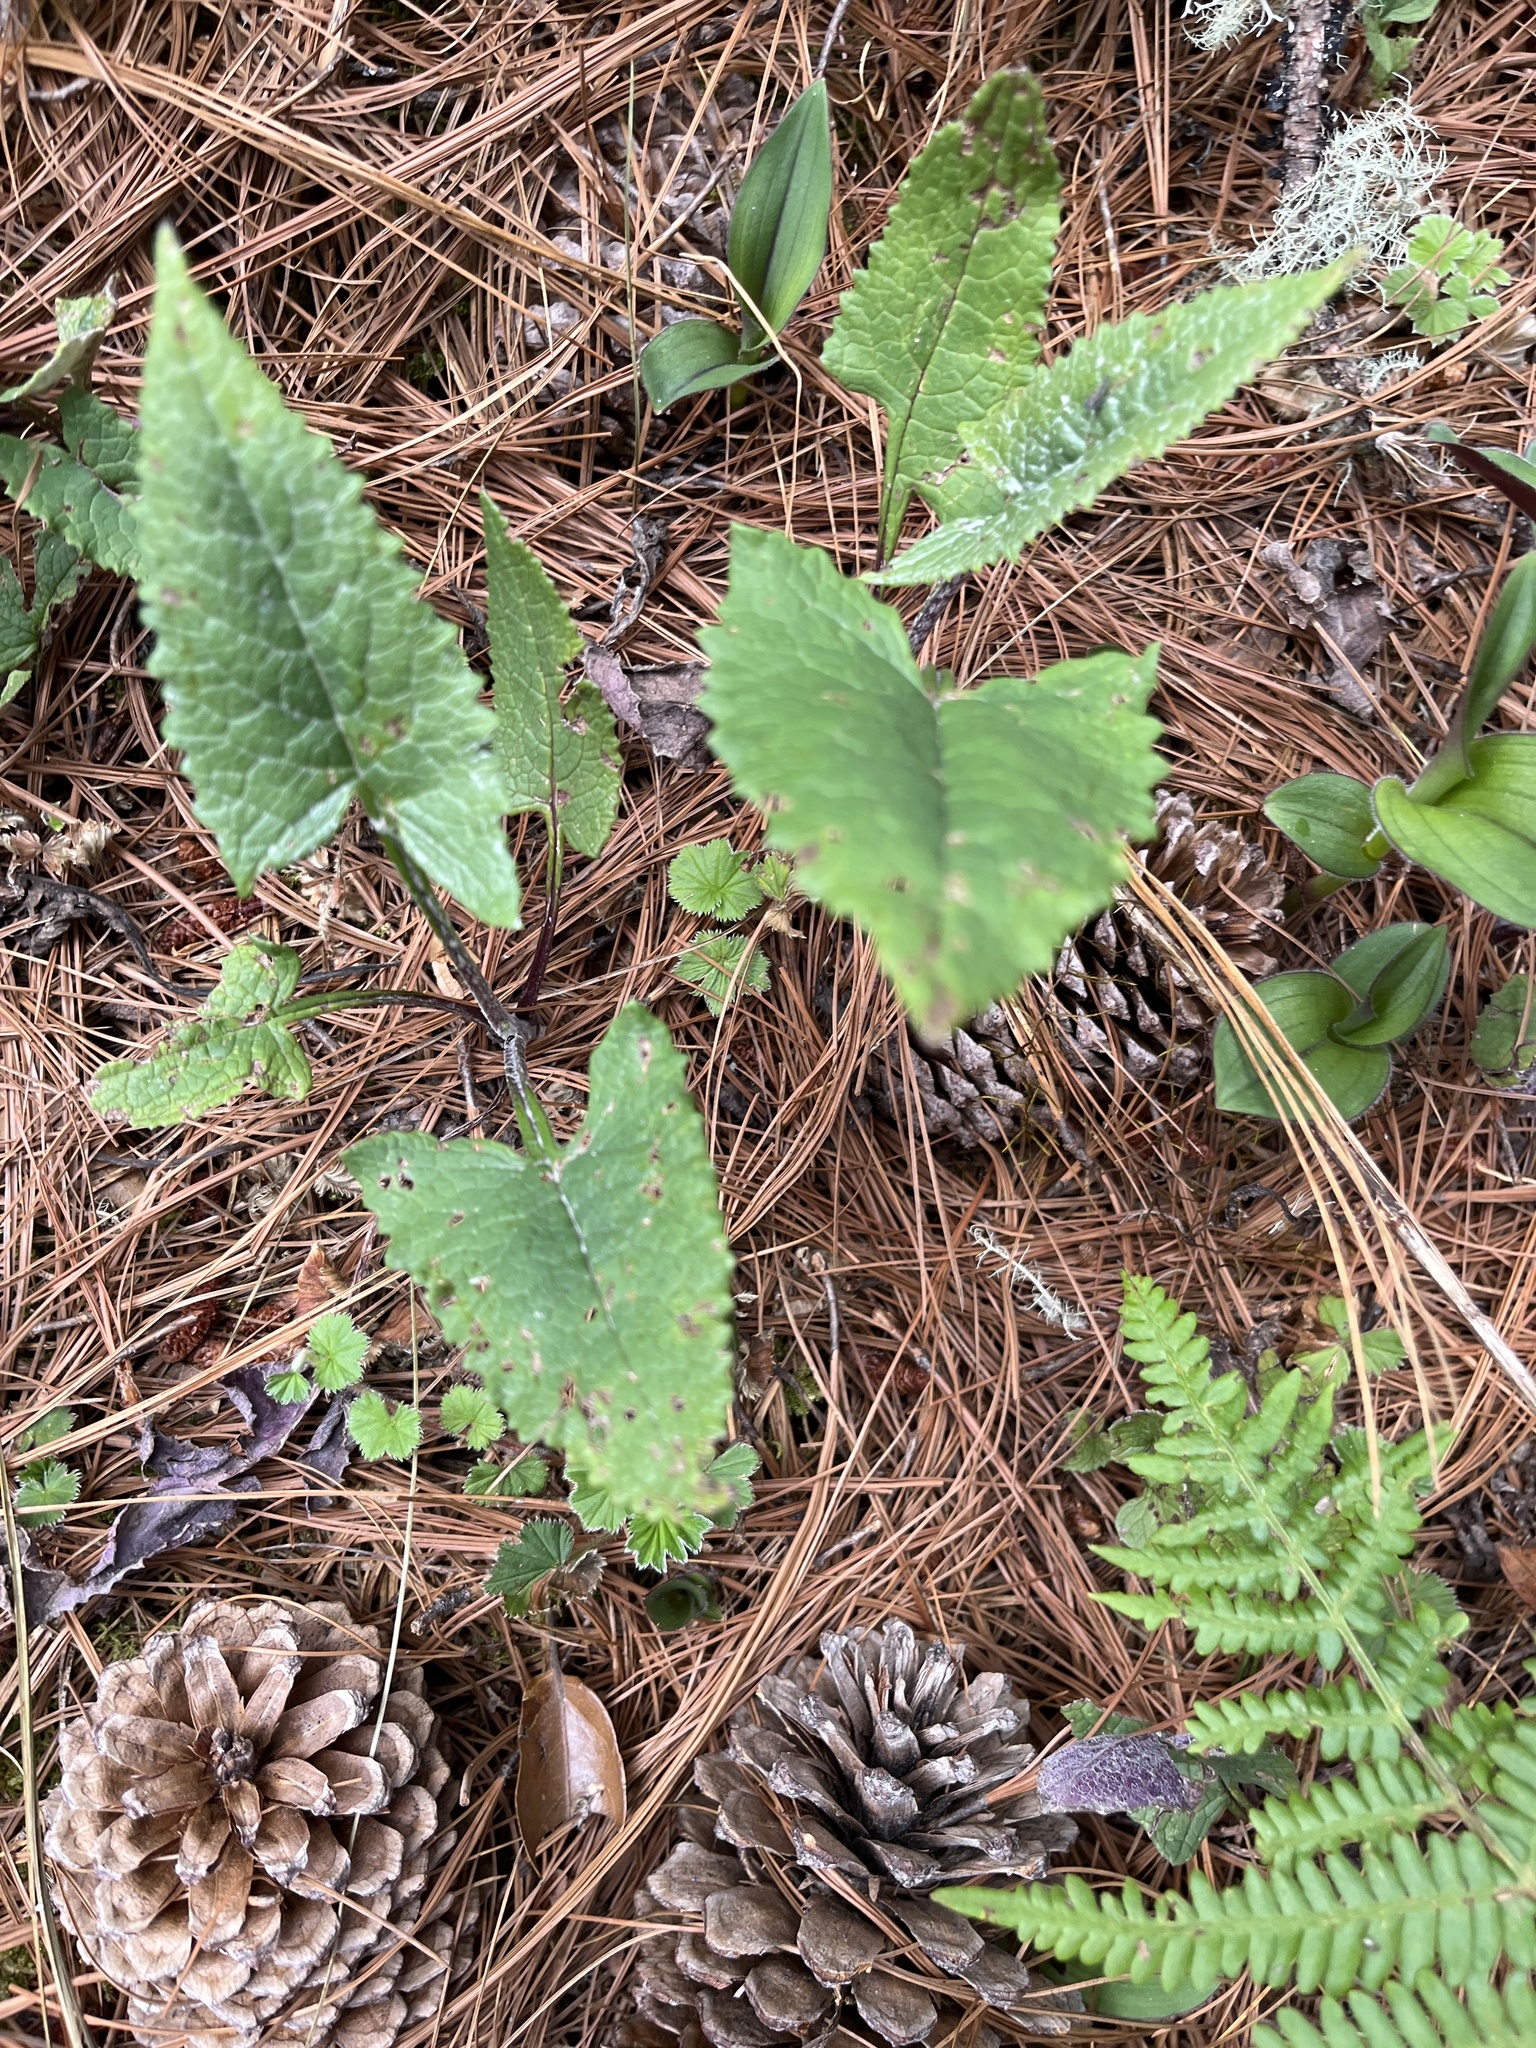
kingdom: Plantae
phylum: Tracheophyta
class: Magnoliopsida
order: Asterales
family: Asteraceae
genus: Senecio
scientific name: Senecio callosus
